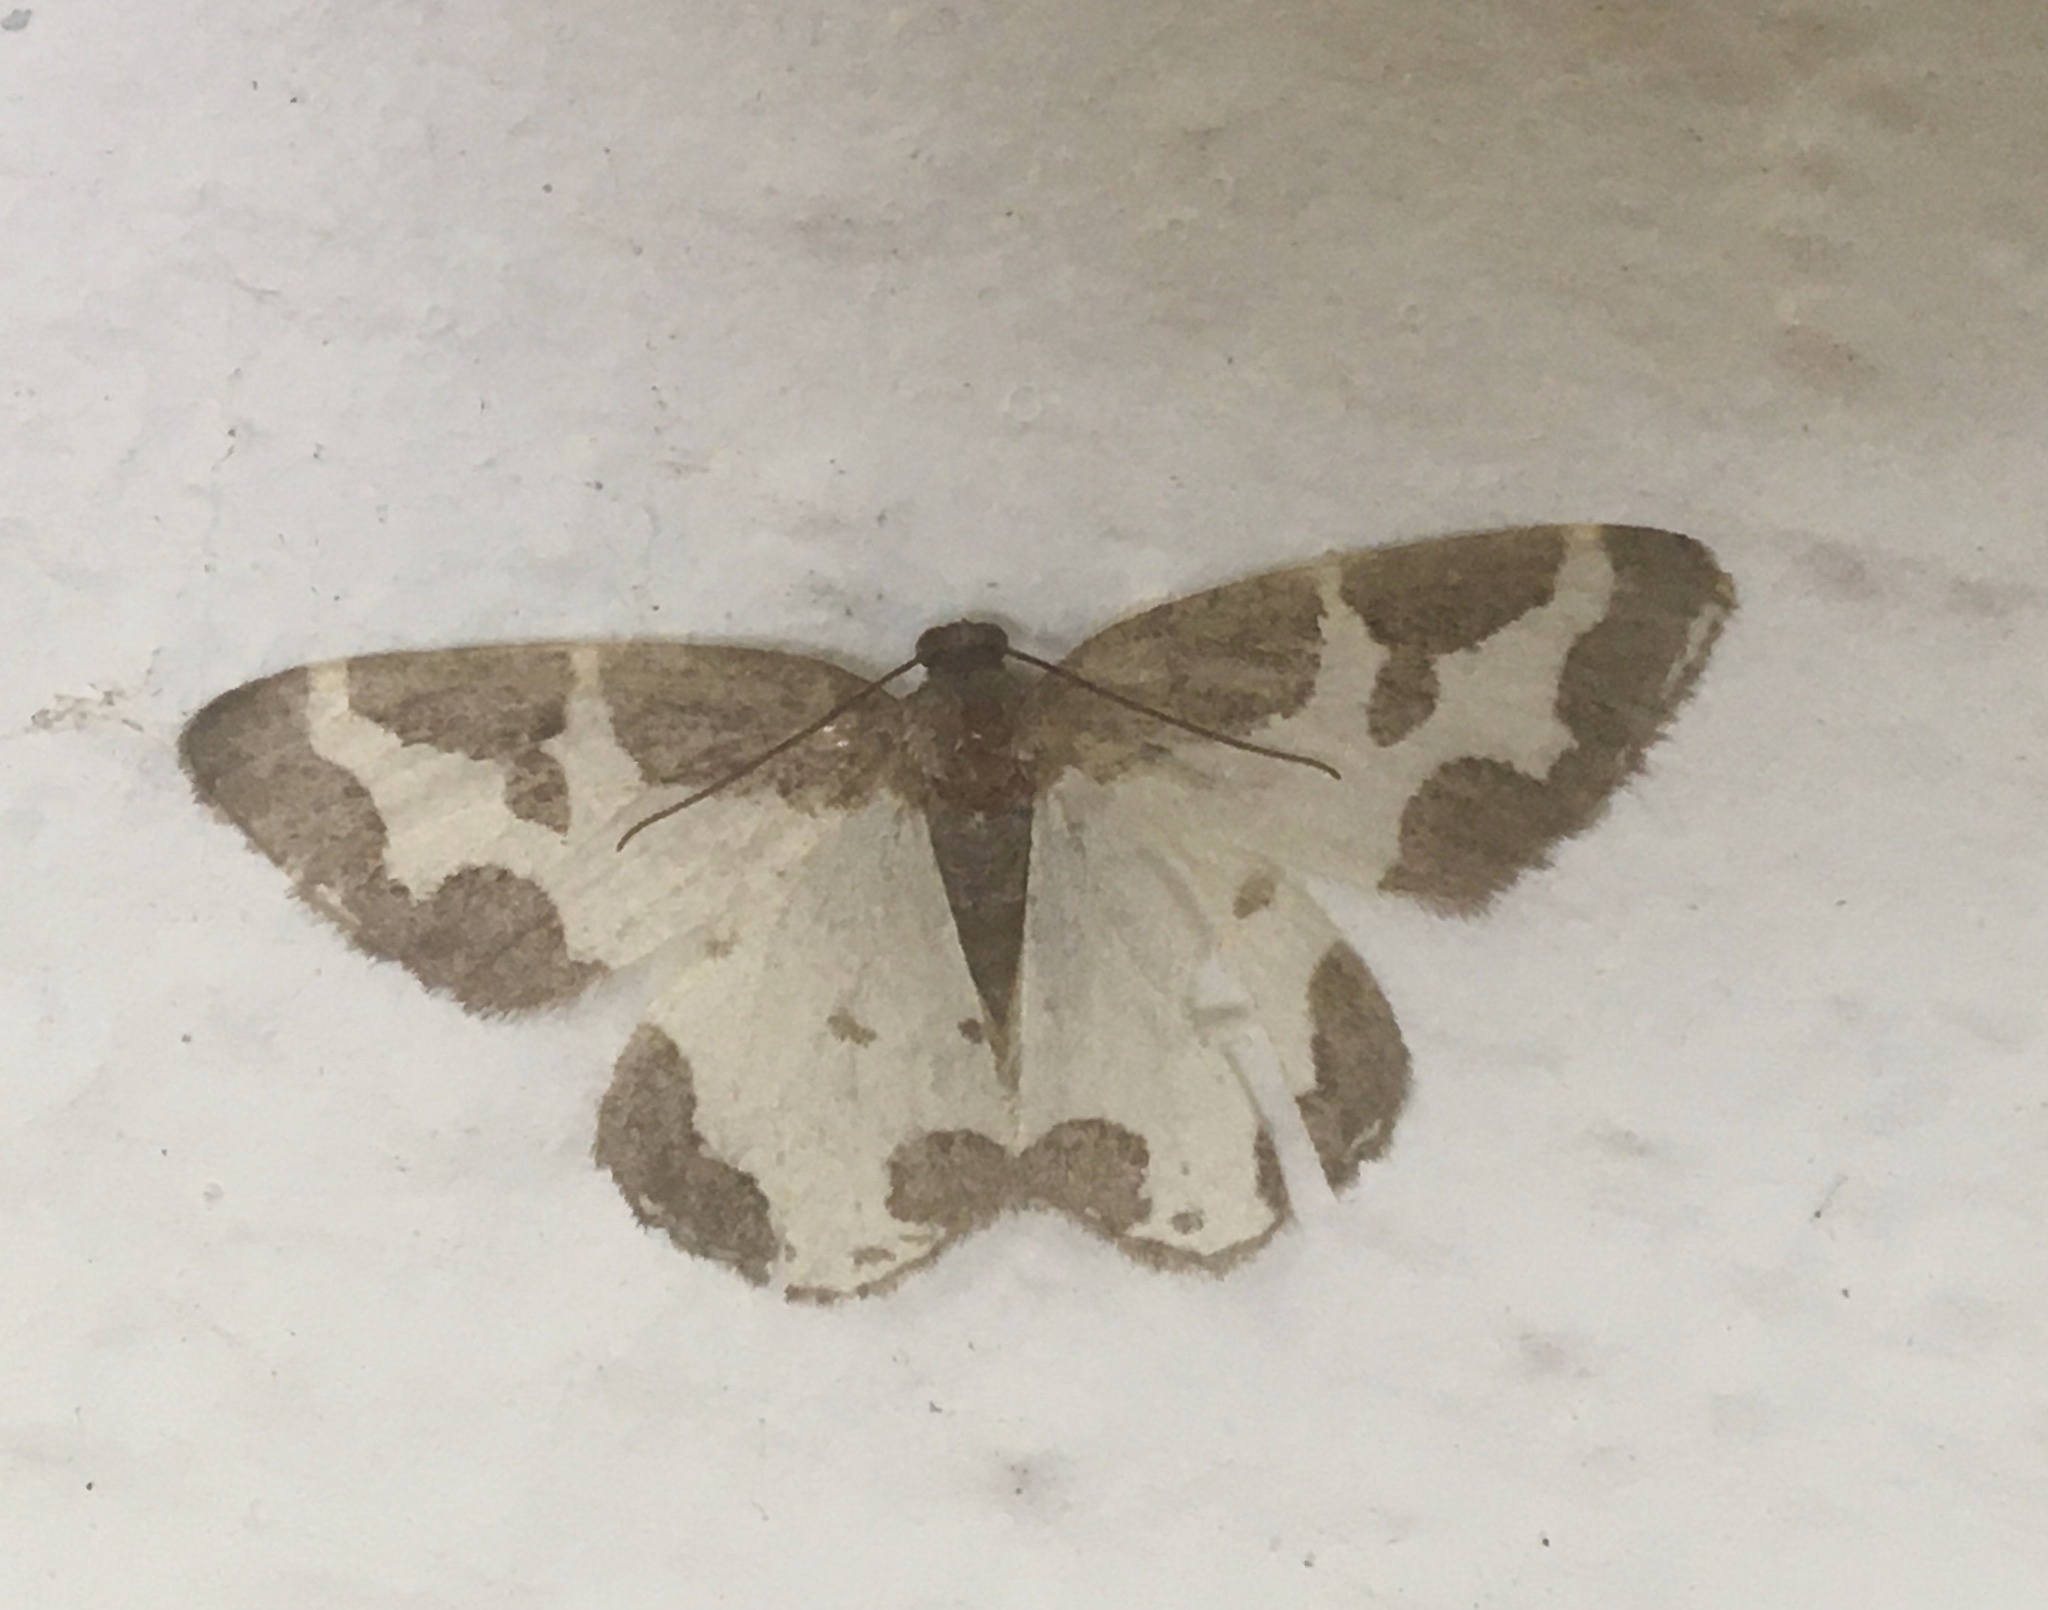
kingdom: Animalia
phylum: Arthropoda
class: Insecta
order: Lepidoptera
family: Geometridae
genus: Lomaspilis
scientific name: Lomaspilis marginata
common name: Clouded border
